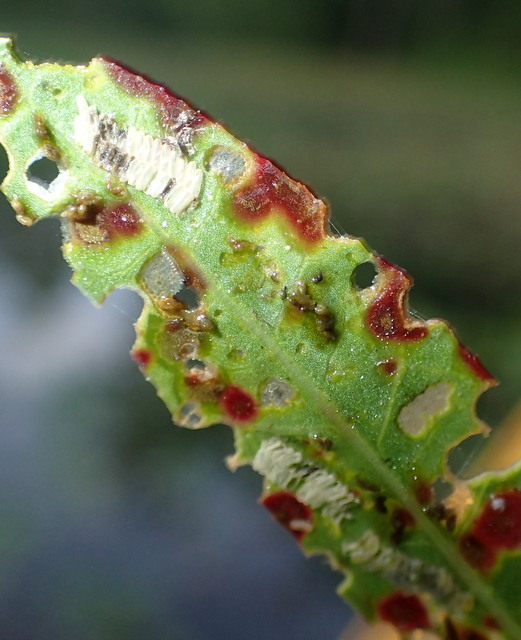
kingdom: Animalia
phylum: Arthropoda
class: Insecta
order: Coleoptera
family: Chrysomelidae
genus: Agasicles
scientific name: Agasicles hygrophila
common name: Alligatorweed flea beetle
